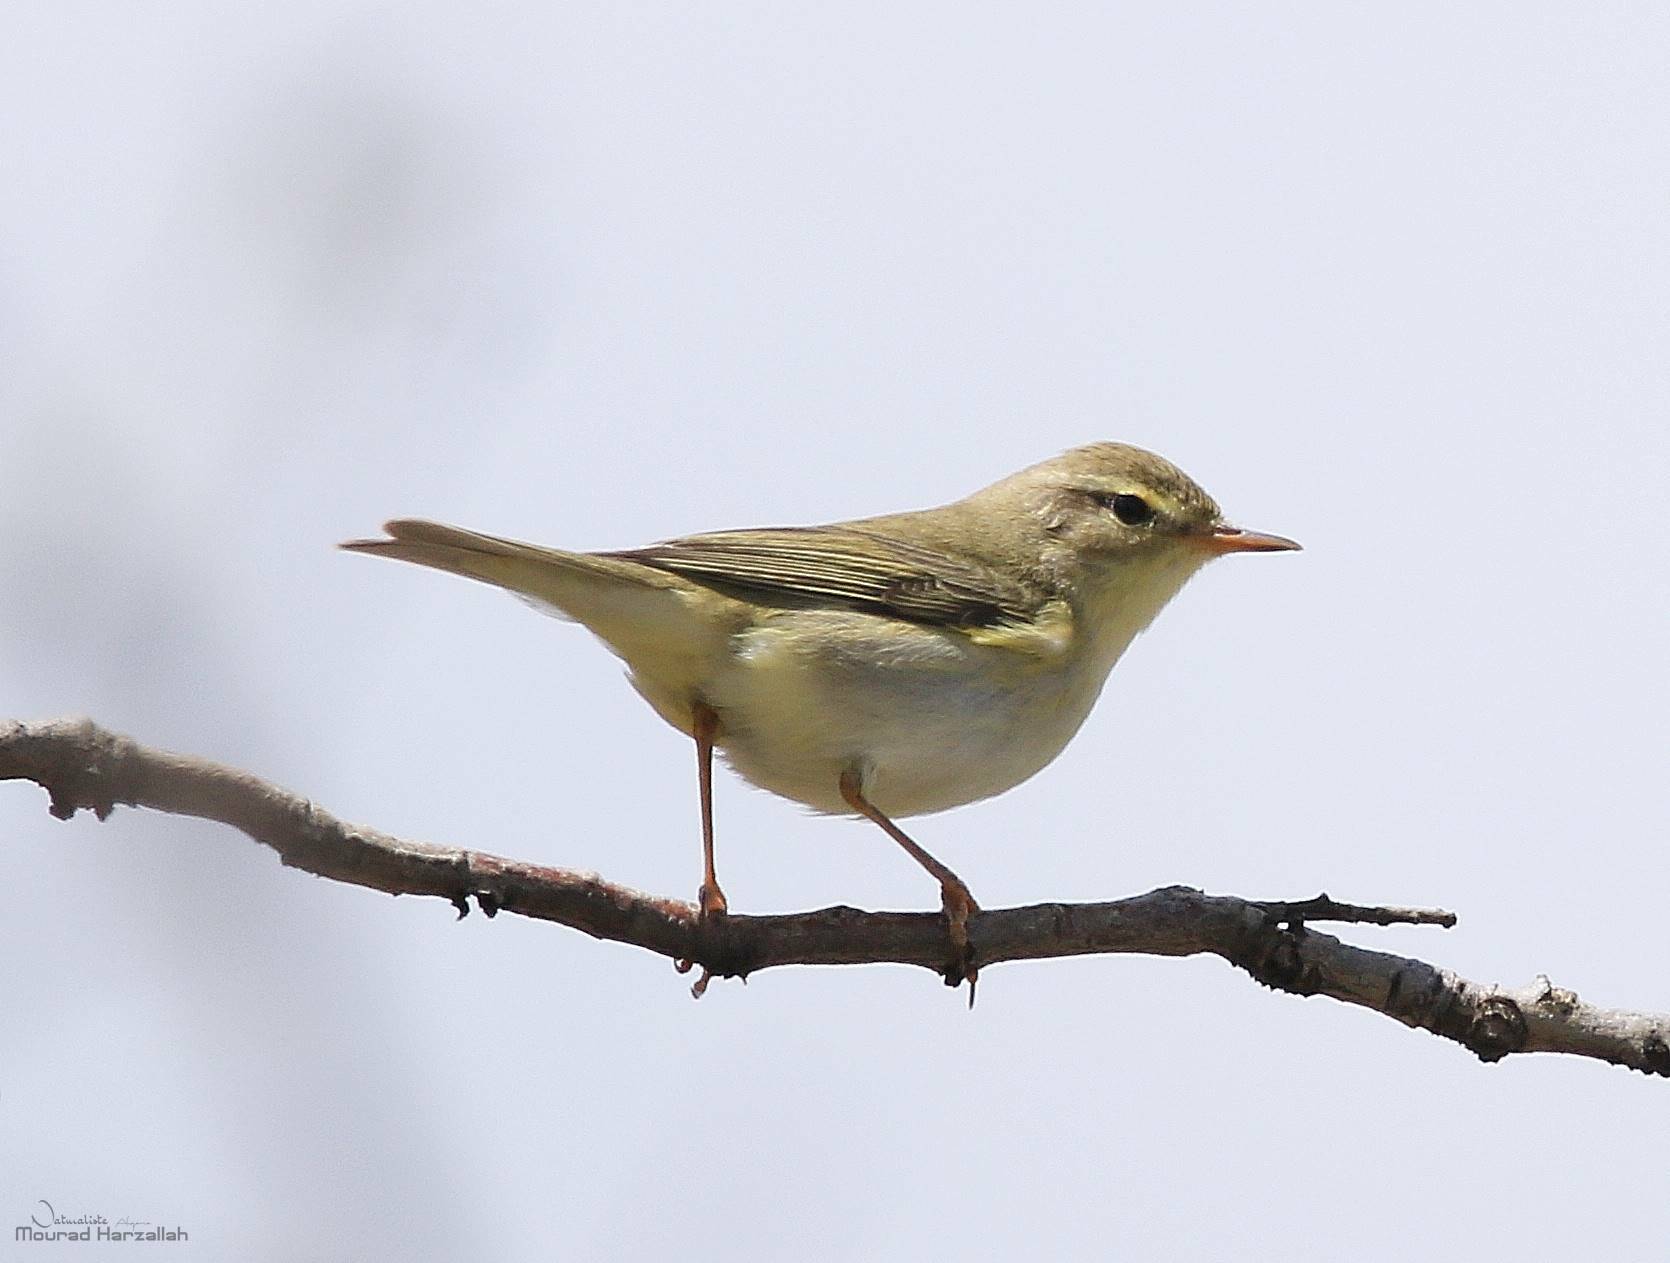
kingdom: Animalia
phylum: Chordata
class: Aves
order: Passeriformes
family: Phylloscopidae
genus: Phylloscopus
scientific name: Phylloscopus trochilus
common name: Willow warbler
